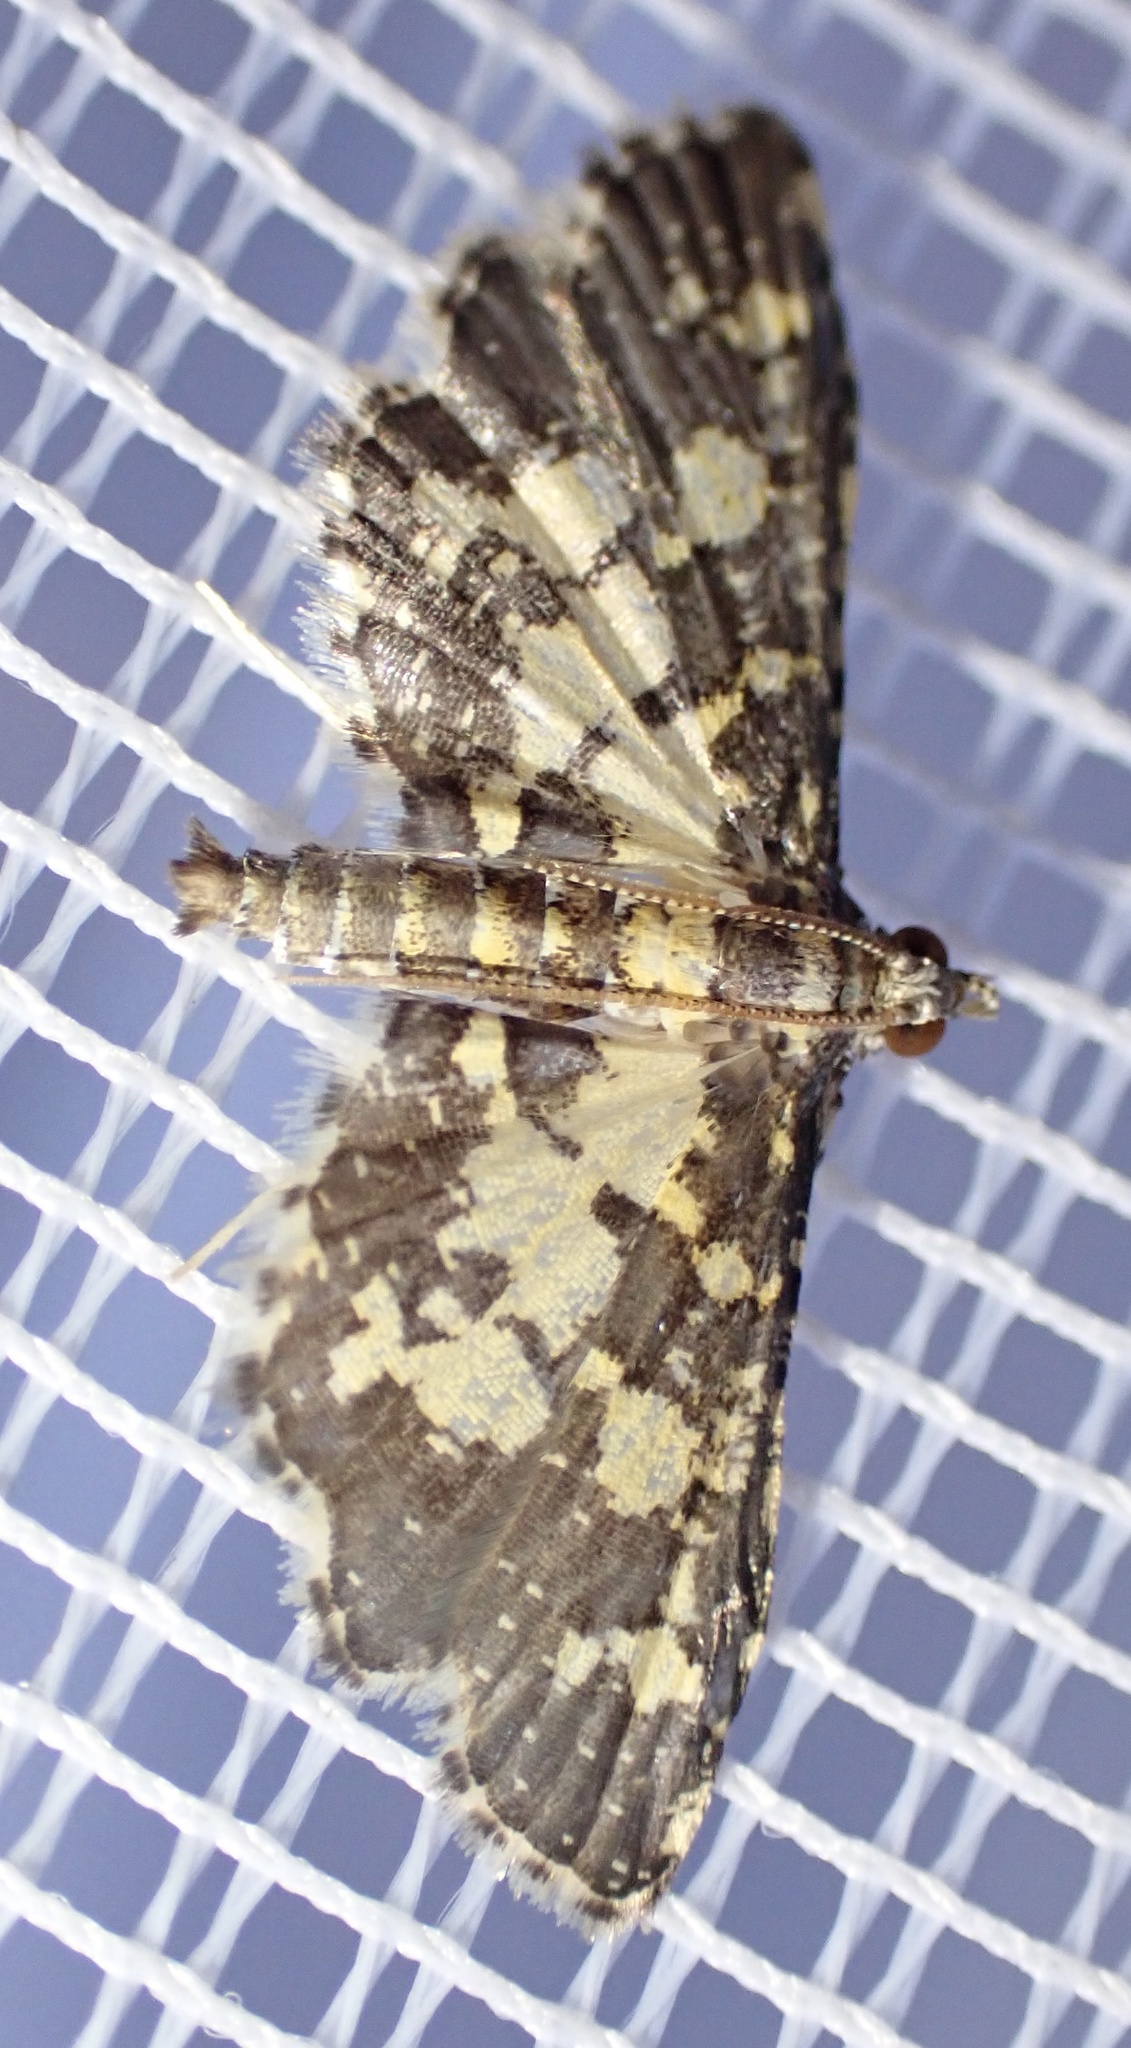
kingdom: Animalia
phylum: Arthropoda
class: Insecta
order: Lepidoptera
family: Crambidae
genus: Eurrhyparodes
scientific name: Eurrhyparodes bracteolalis
